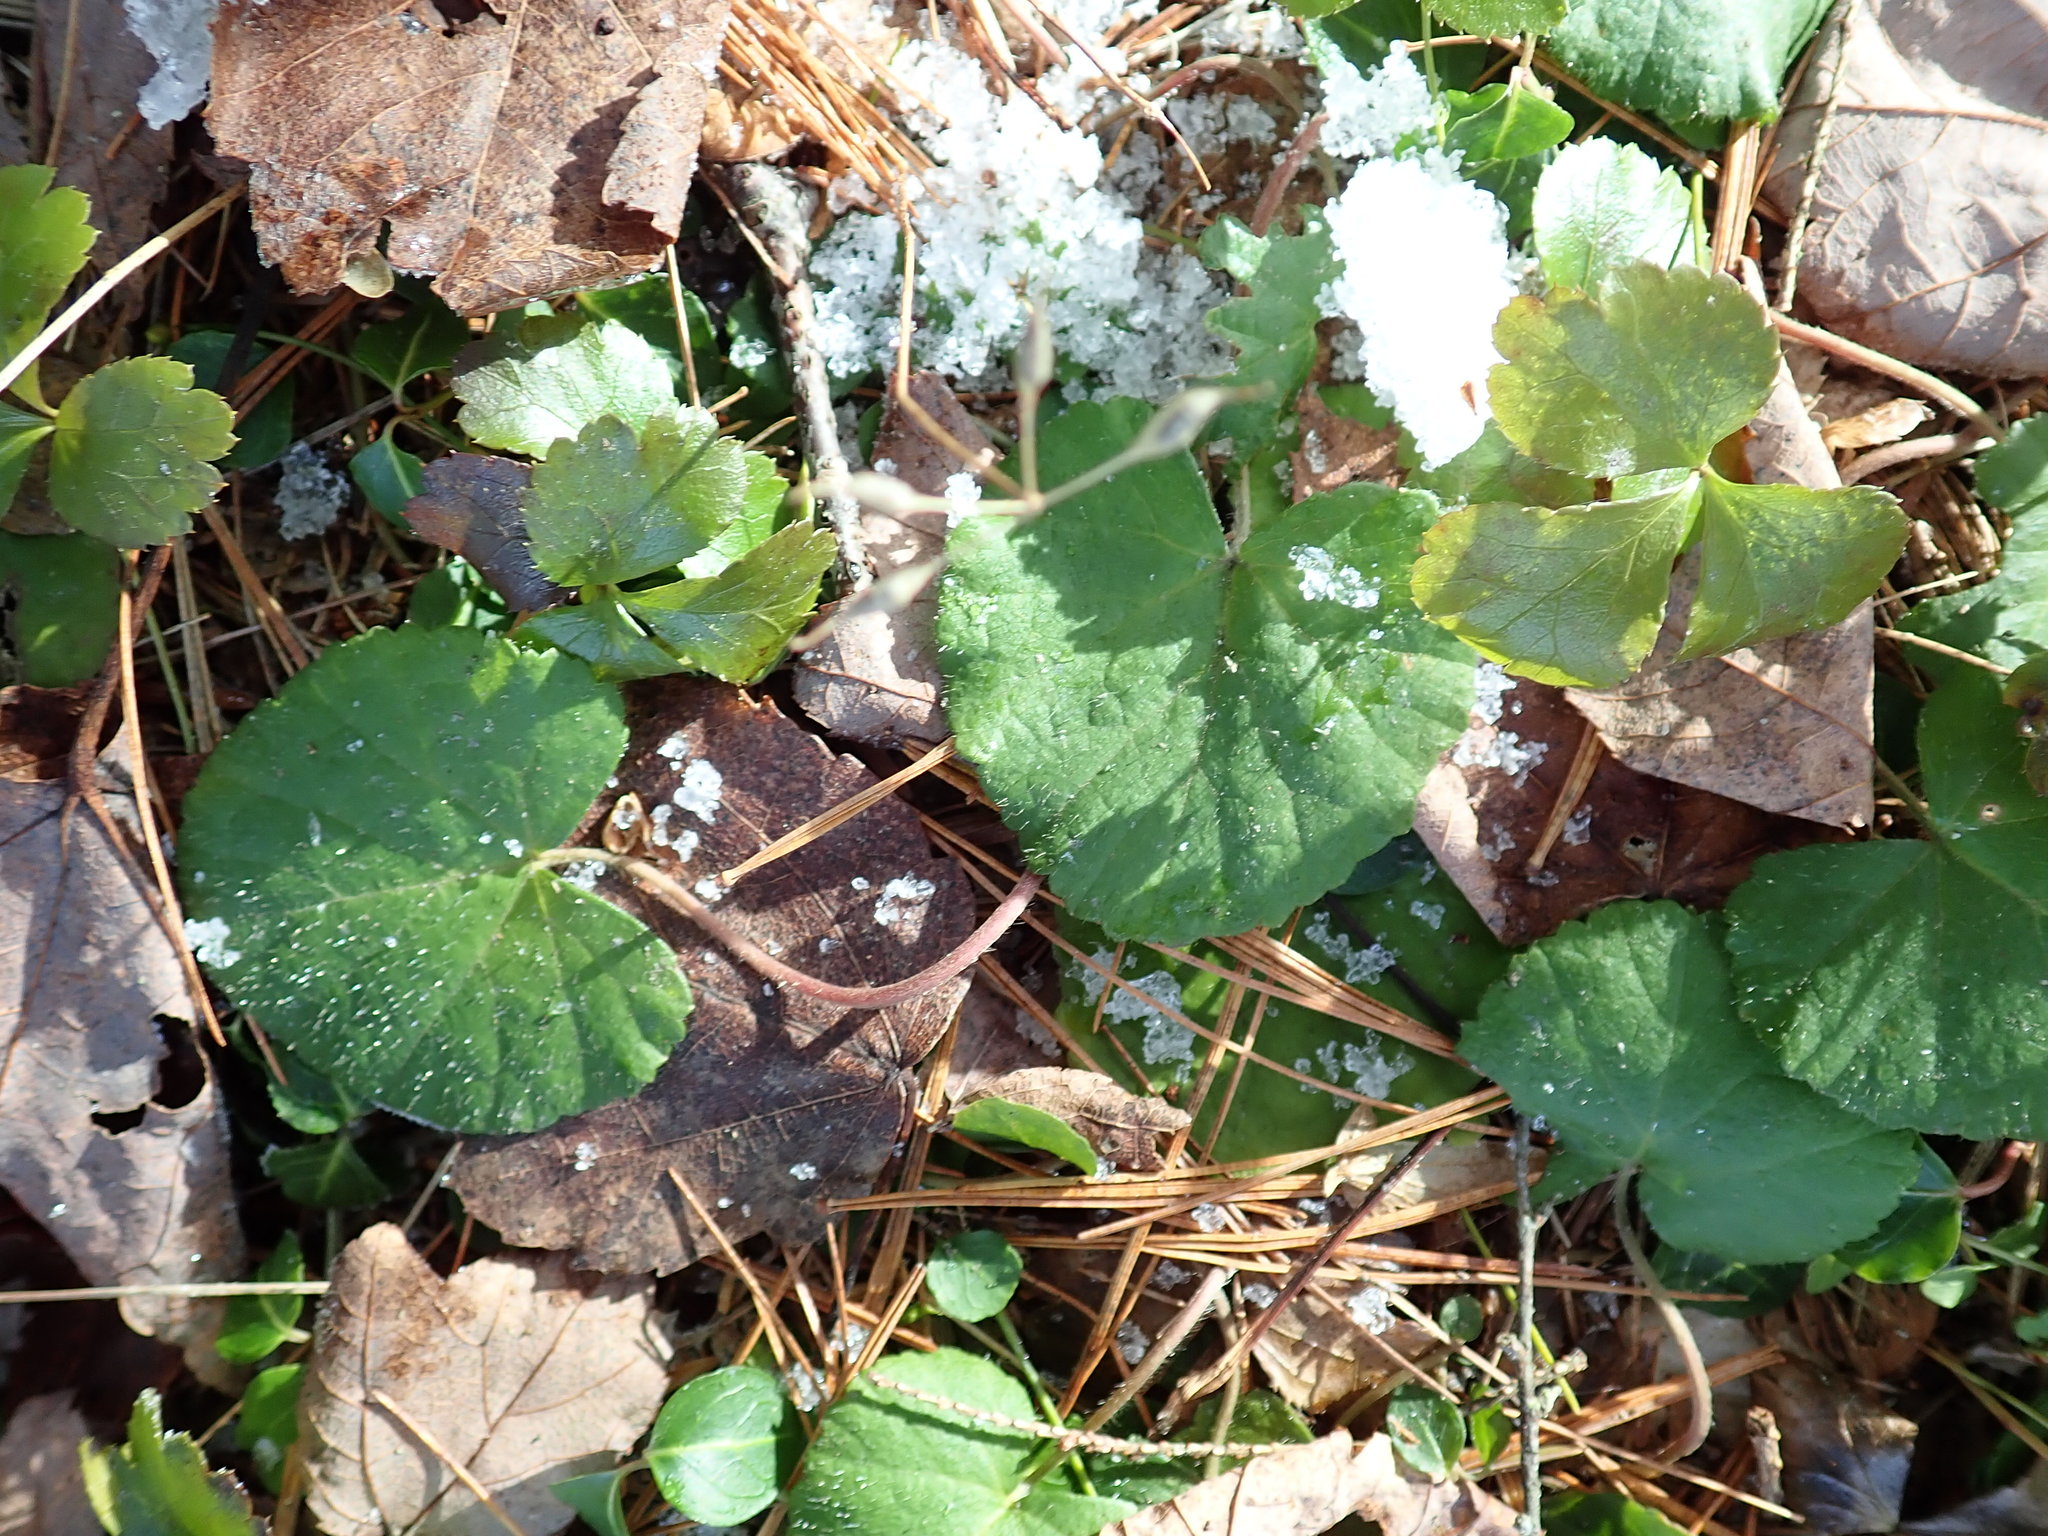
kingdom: Plantae
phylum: Tracheophyta
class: Magnoliopsida
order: Rosales
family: Rosaceae
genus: Dalibarda
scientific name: Dalibarda repens
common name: Dewdrop
